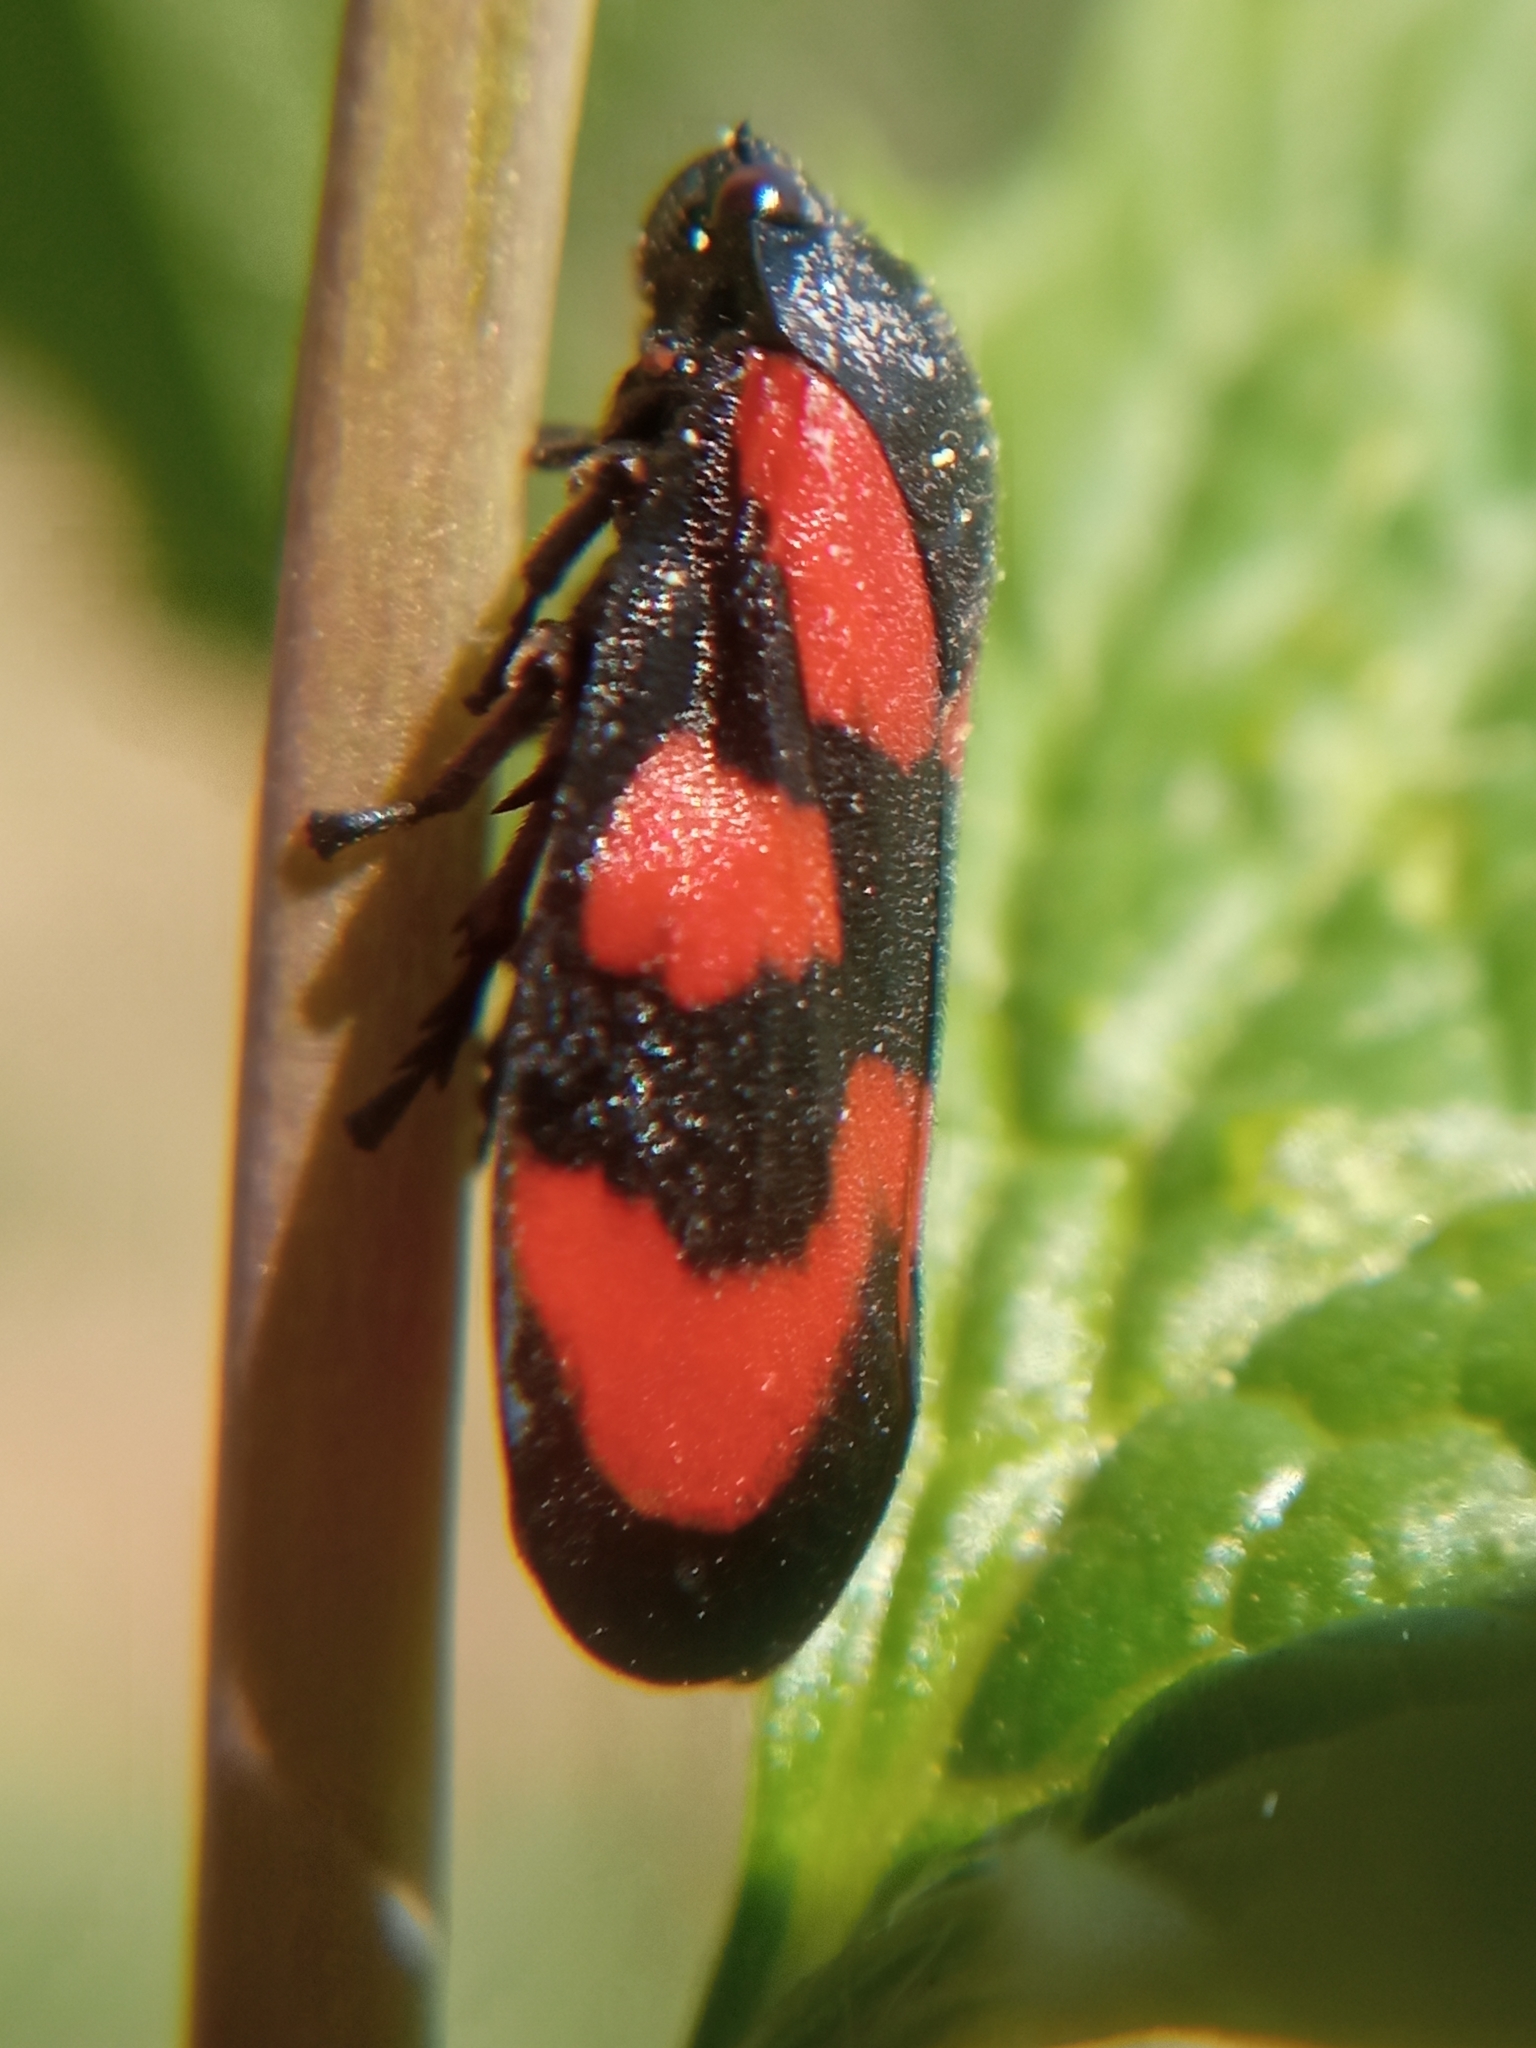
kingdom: Animalia
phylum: Arthropoda
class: Insecta
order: Hemiptera
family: Cercopidae
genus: Cercopis
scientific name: Cercopis vulnerata
